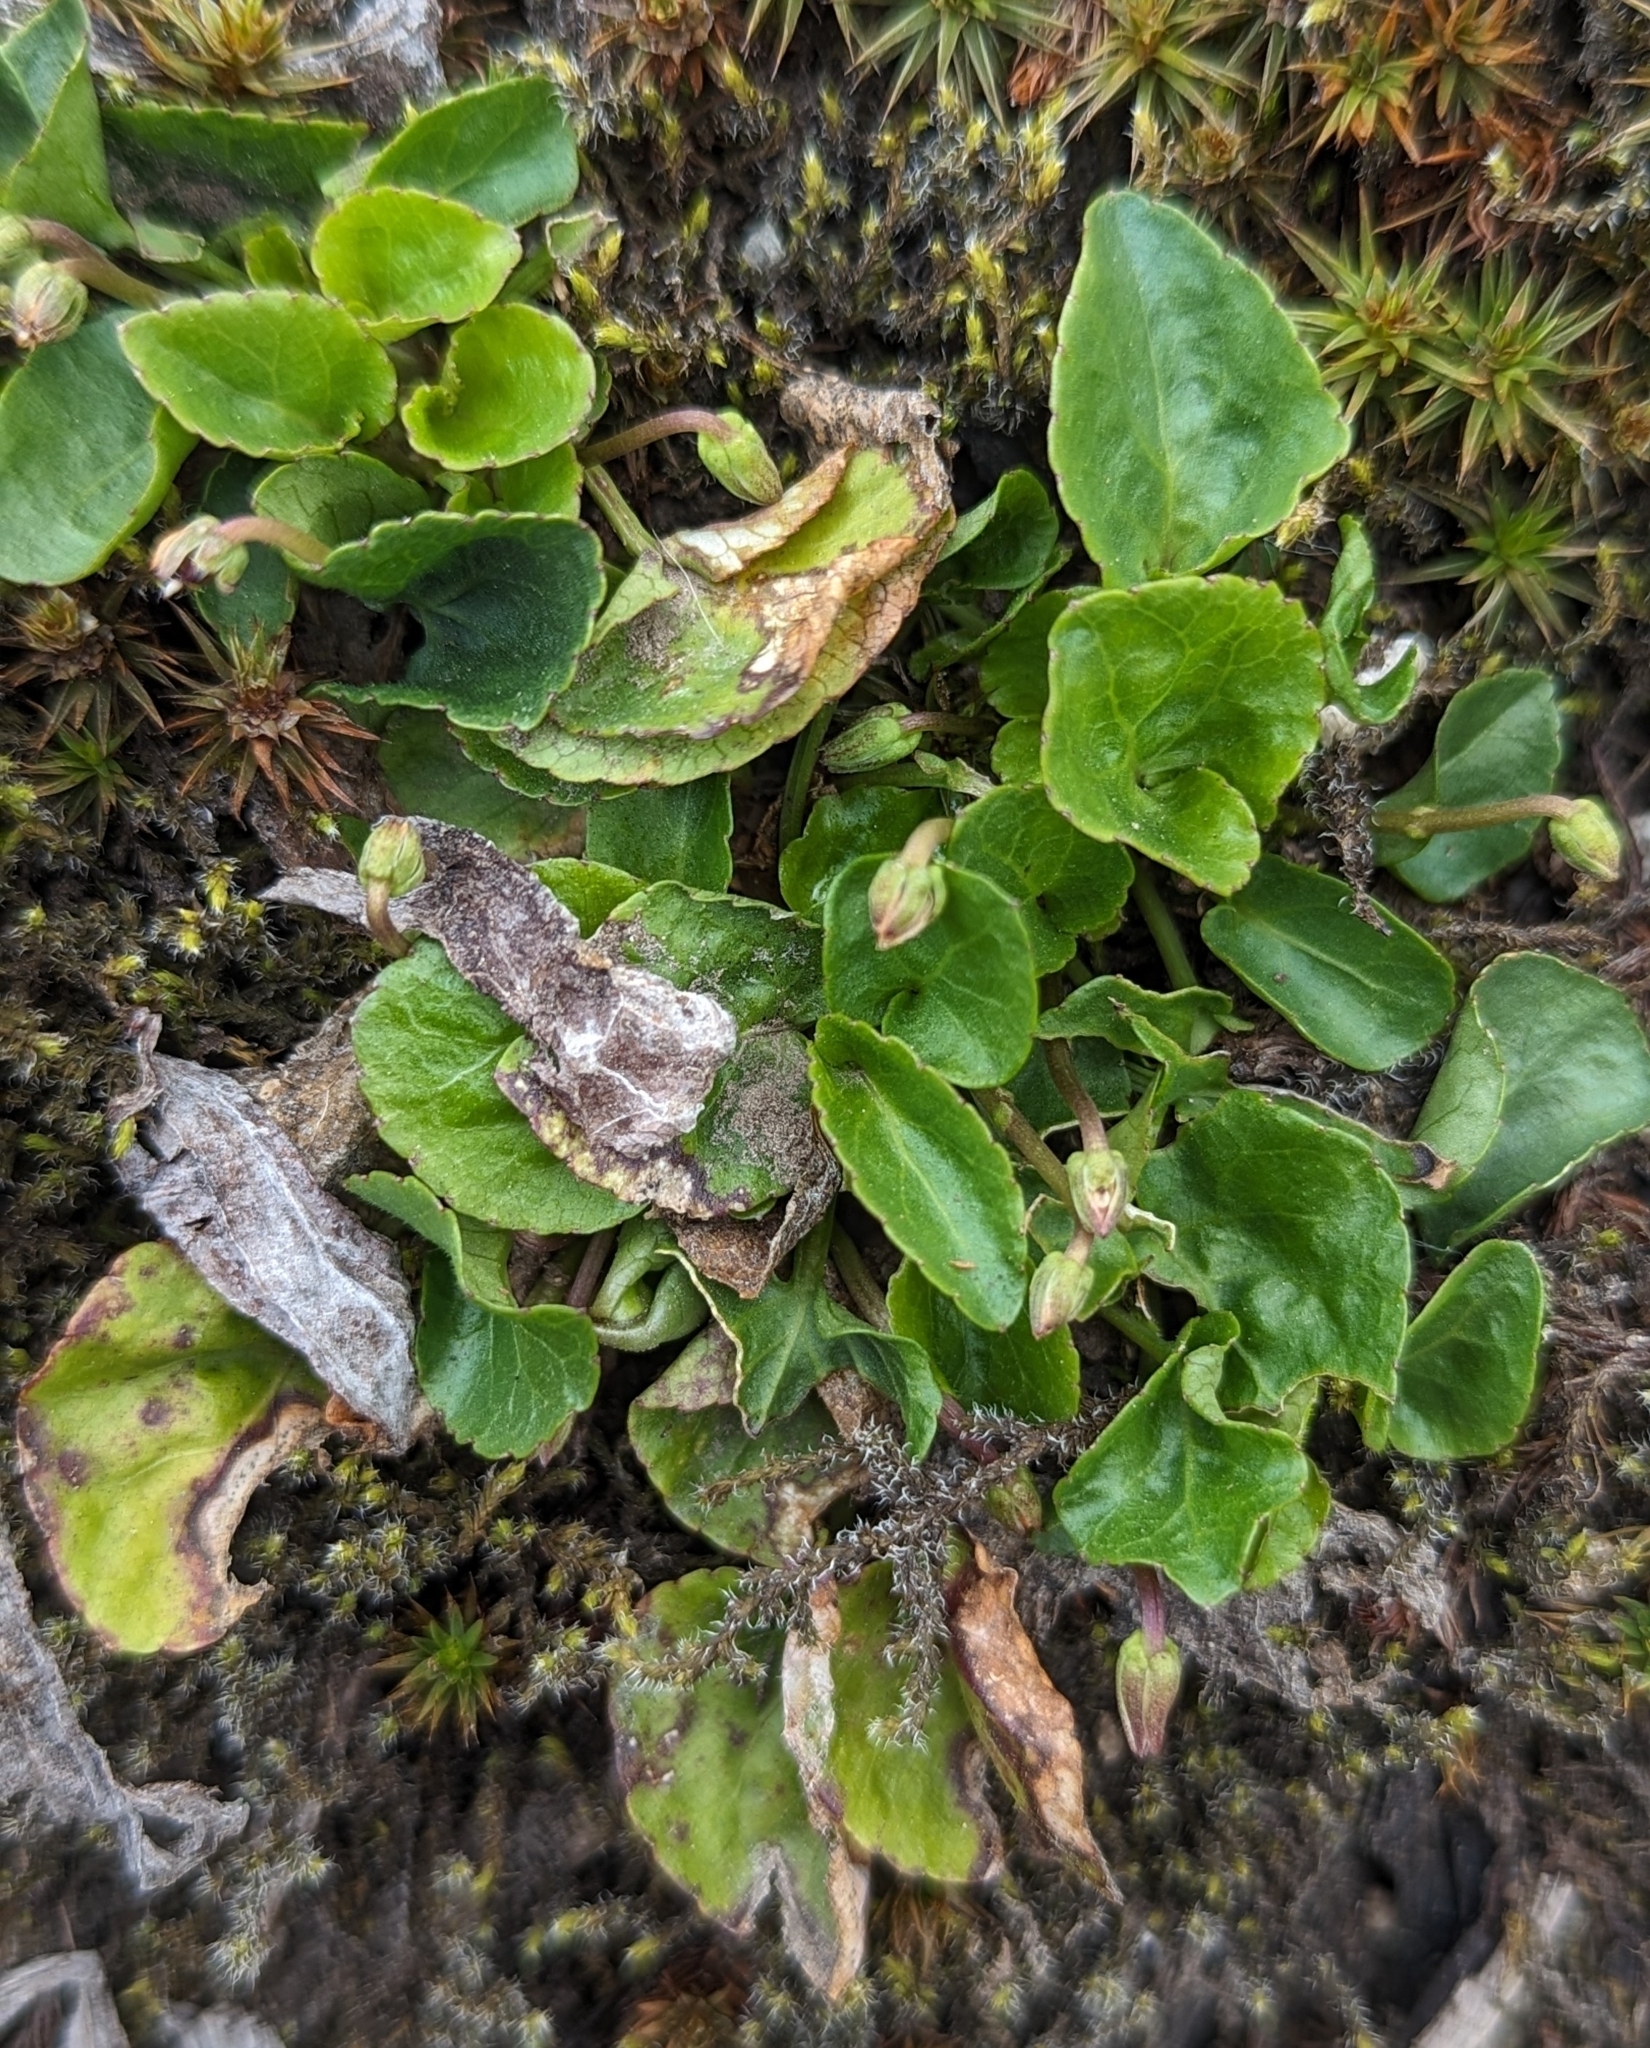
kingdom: Plantae
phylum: Tracheophyta
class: Magnoliopsida
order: Malpighiales
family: Violaceae
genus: Viola
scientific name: Viola orbiculata
